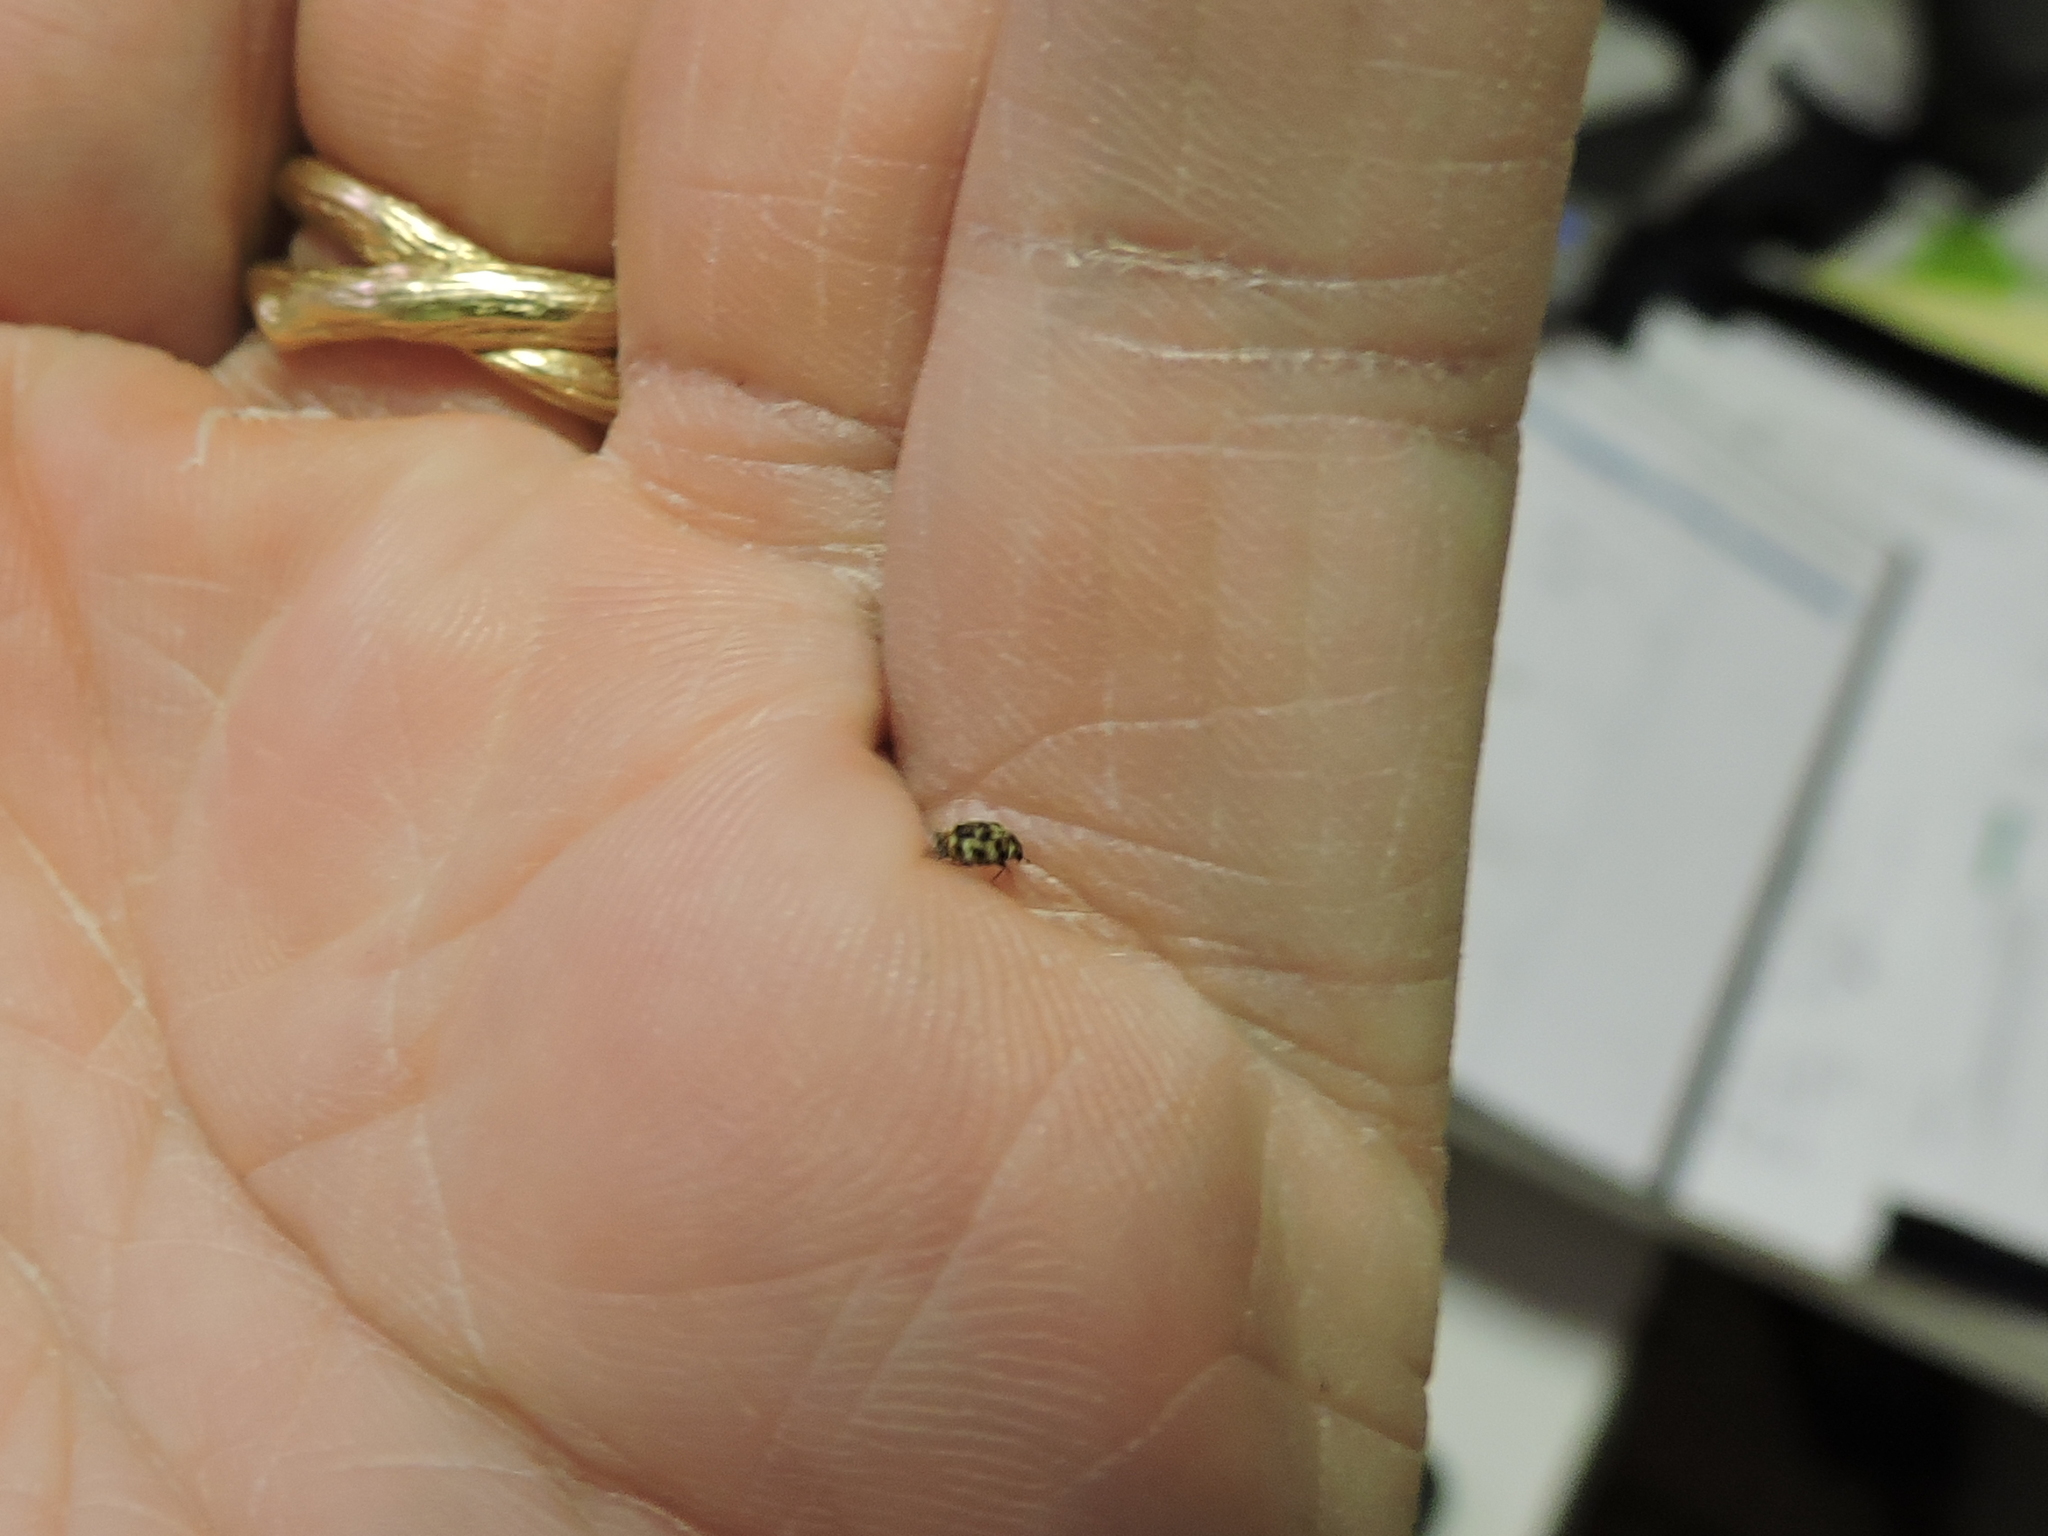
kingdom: Animalia
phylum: Arthropoda
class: Insecta
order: Coleoptera
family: Dermestidae
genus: Anthrenus
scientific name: Anthrenus verbasci
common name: Varied carpet beetle
